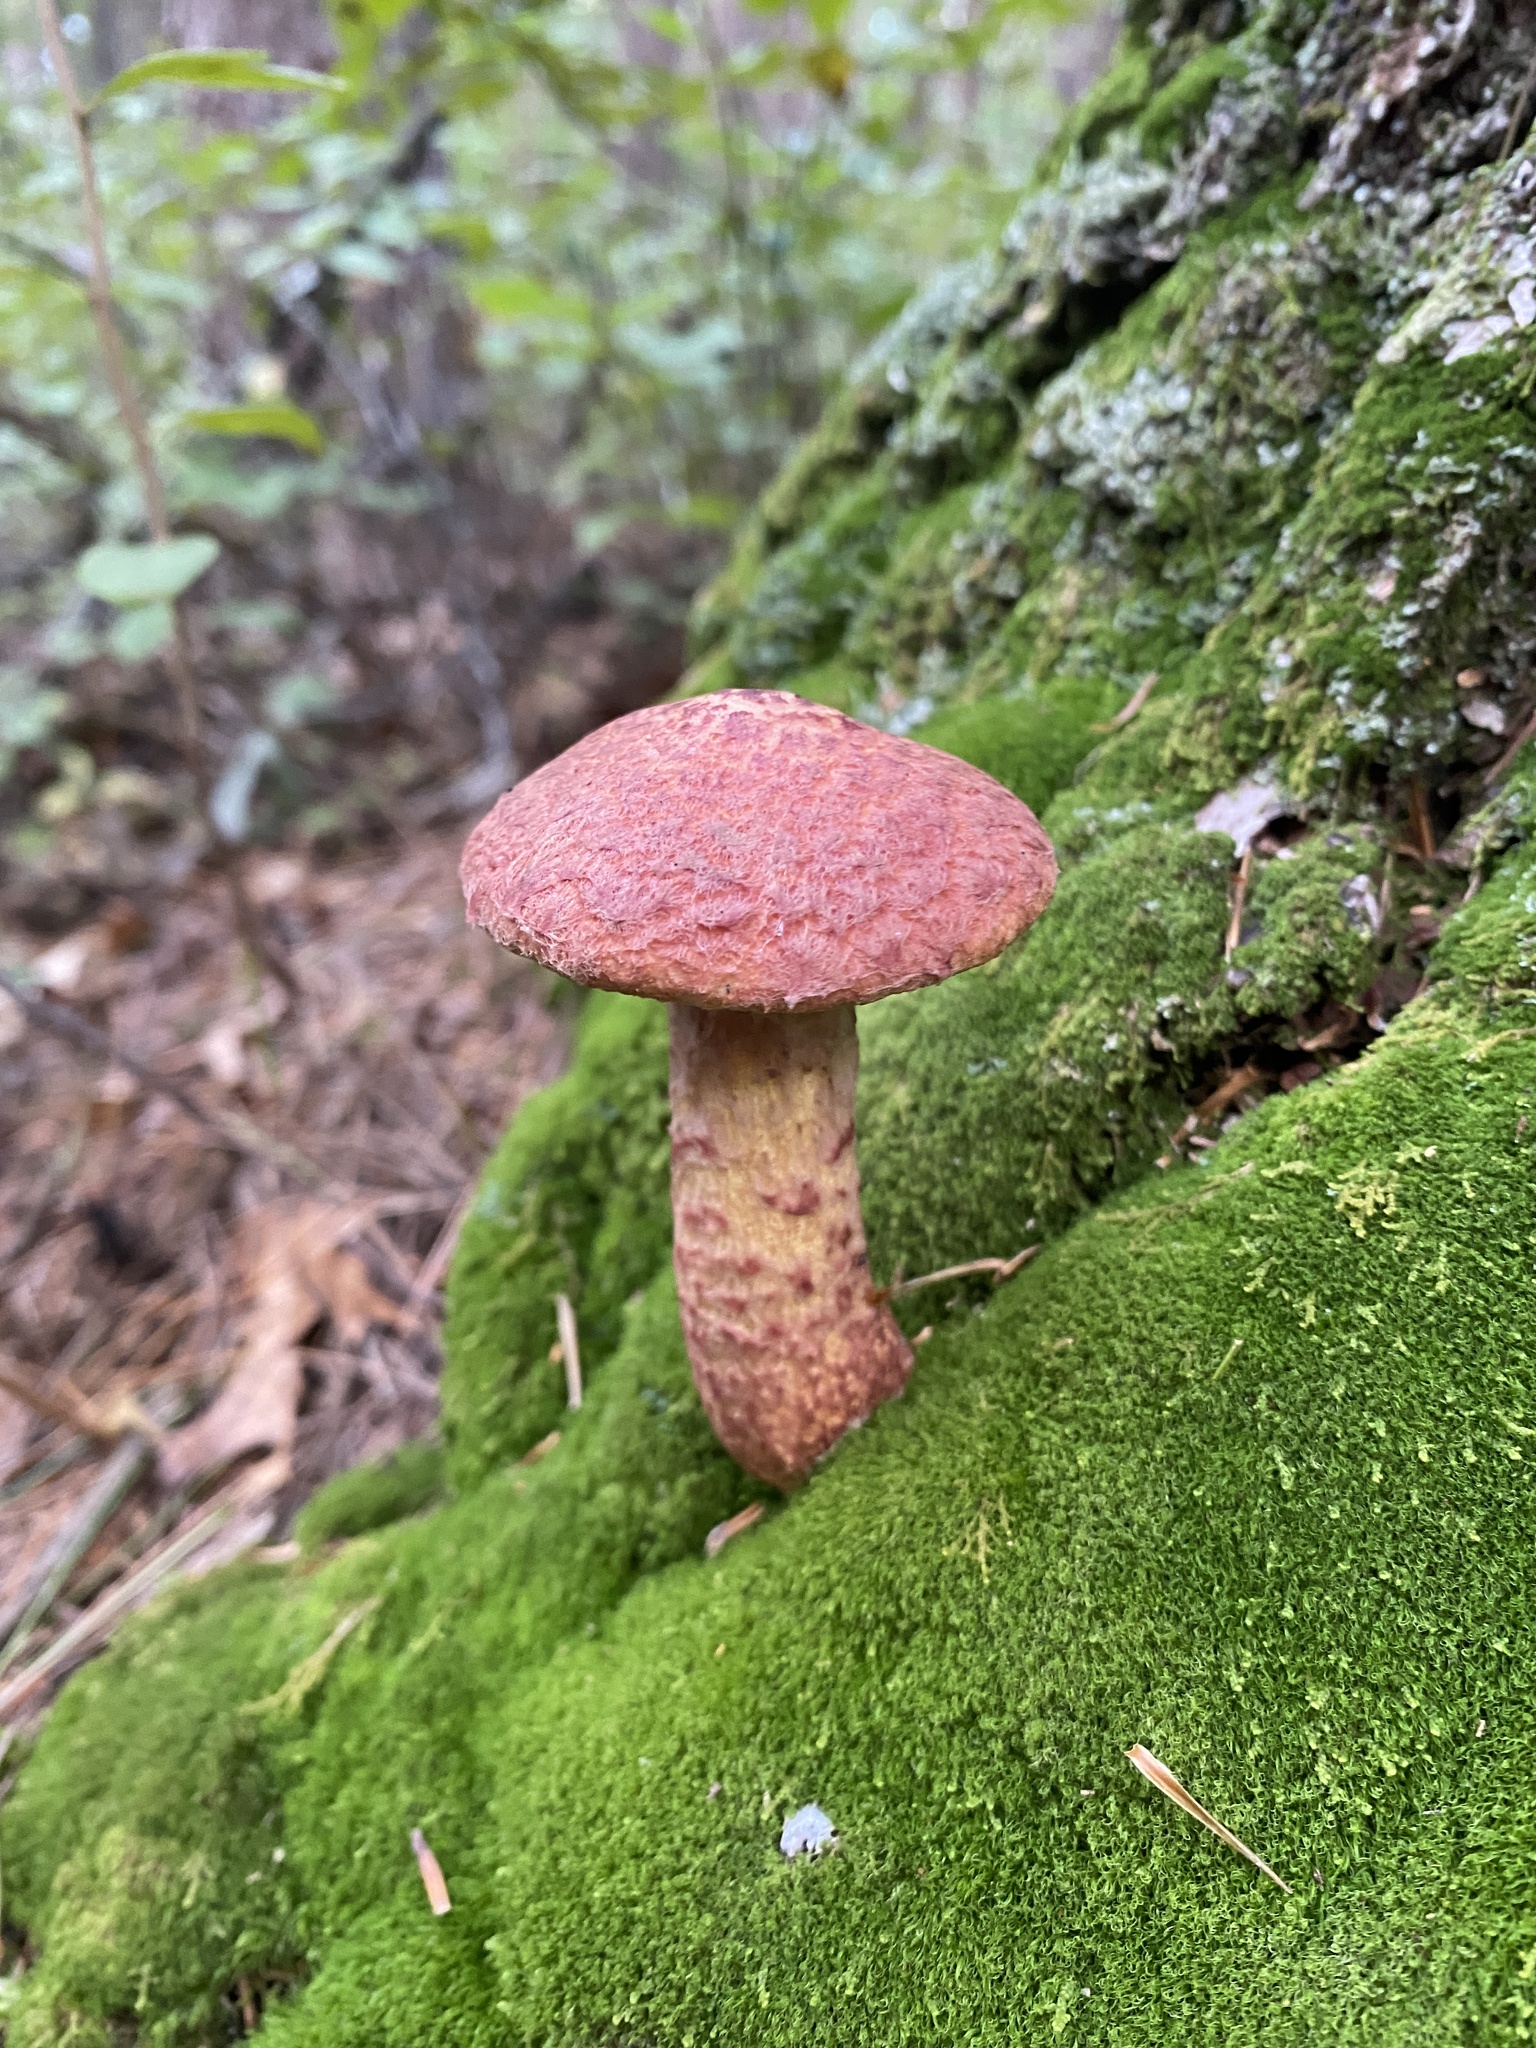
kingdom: Fungi
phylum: Basidiomycota
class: Agaricomycetes
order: Boletales
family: Suillaceae
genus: Suillus
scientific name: Suillus spraguei
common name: Painted suillus
